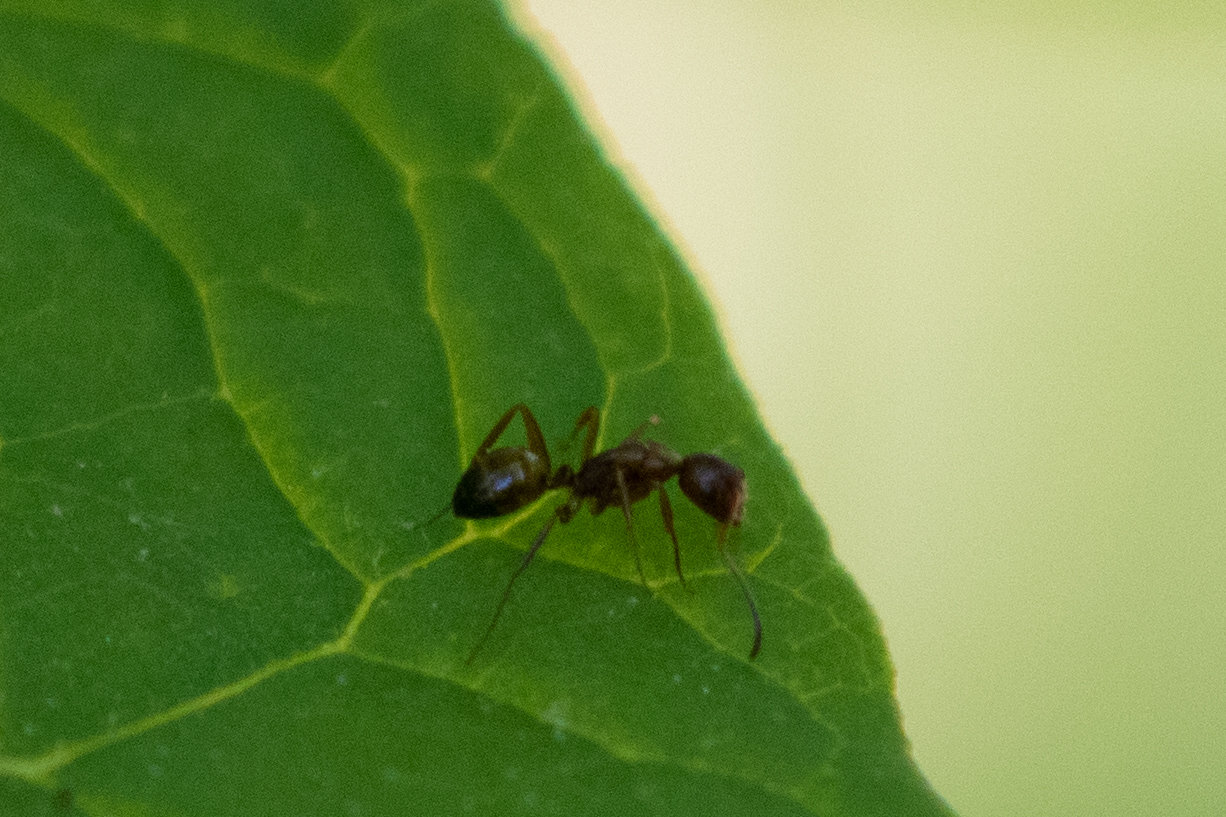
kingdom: Animalia
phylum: Arthropoda
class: Insecta
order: Hymenoptera
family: Formicidae
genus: Camponotus
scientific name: Camponotus subbarbatus
